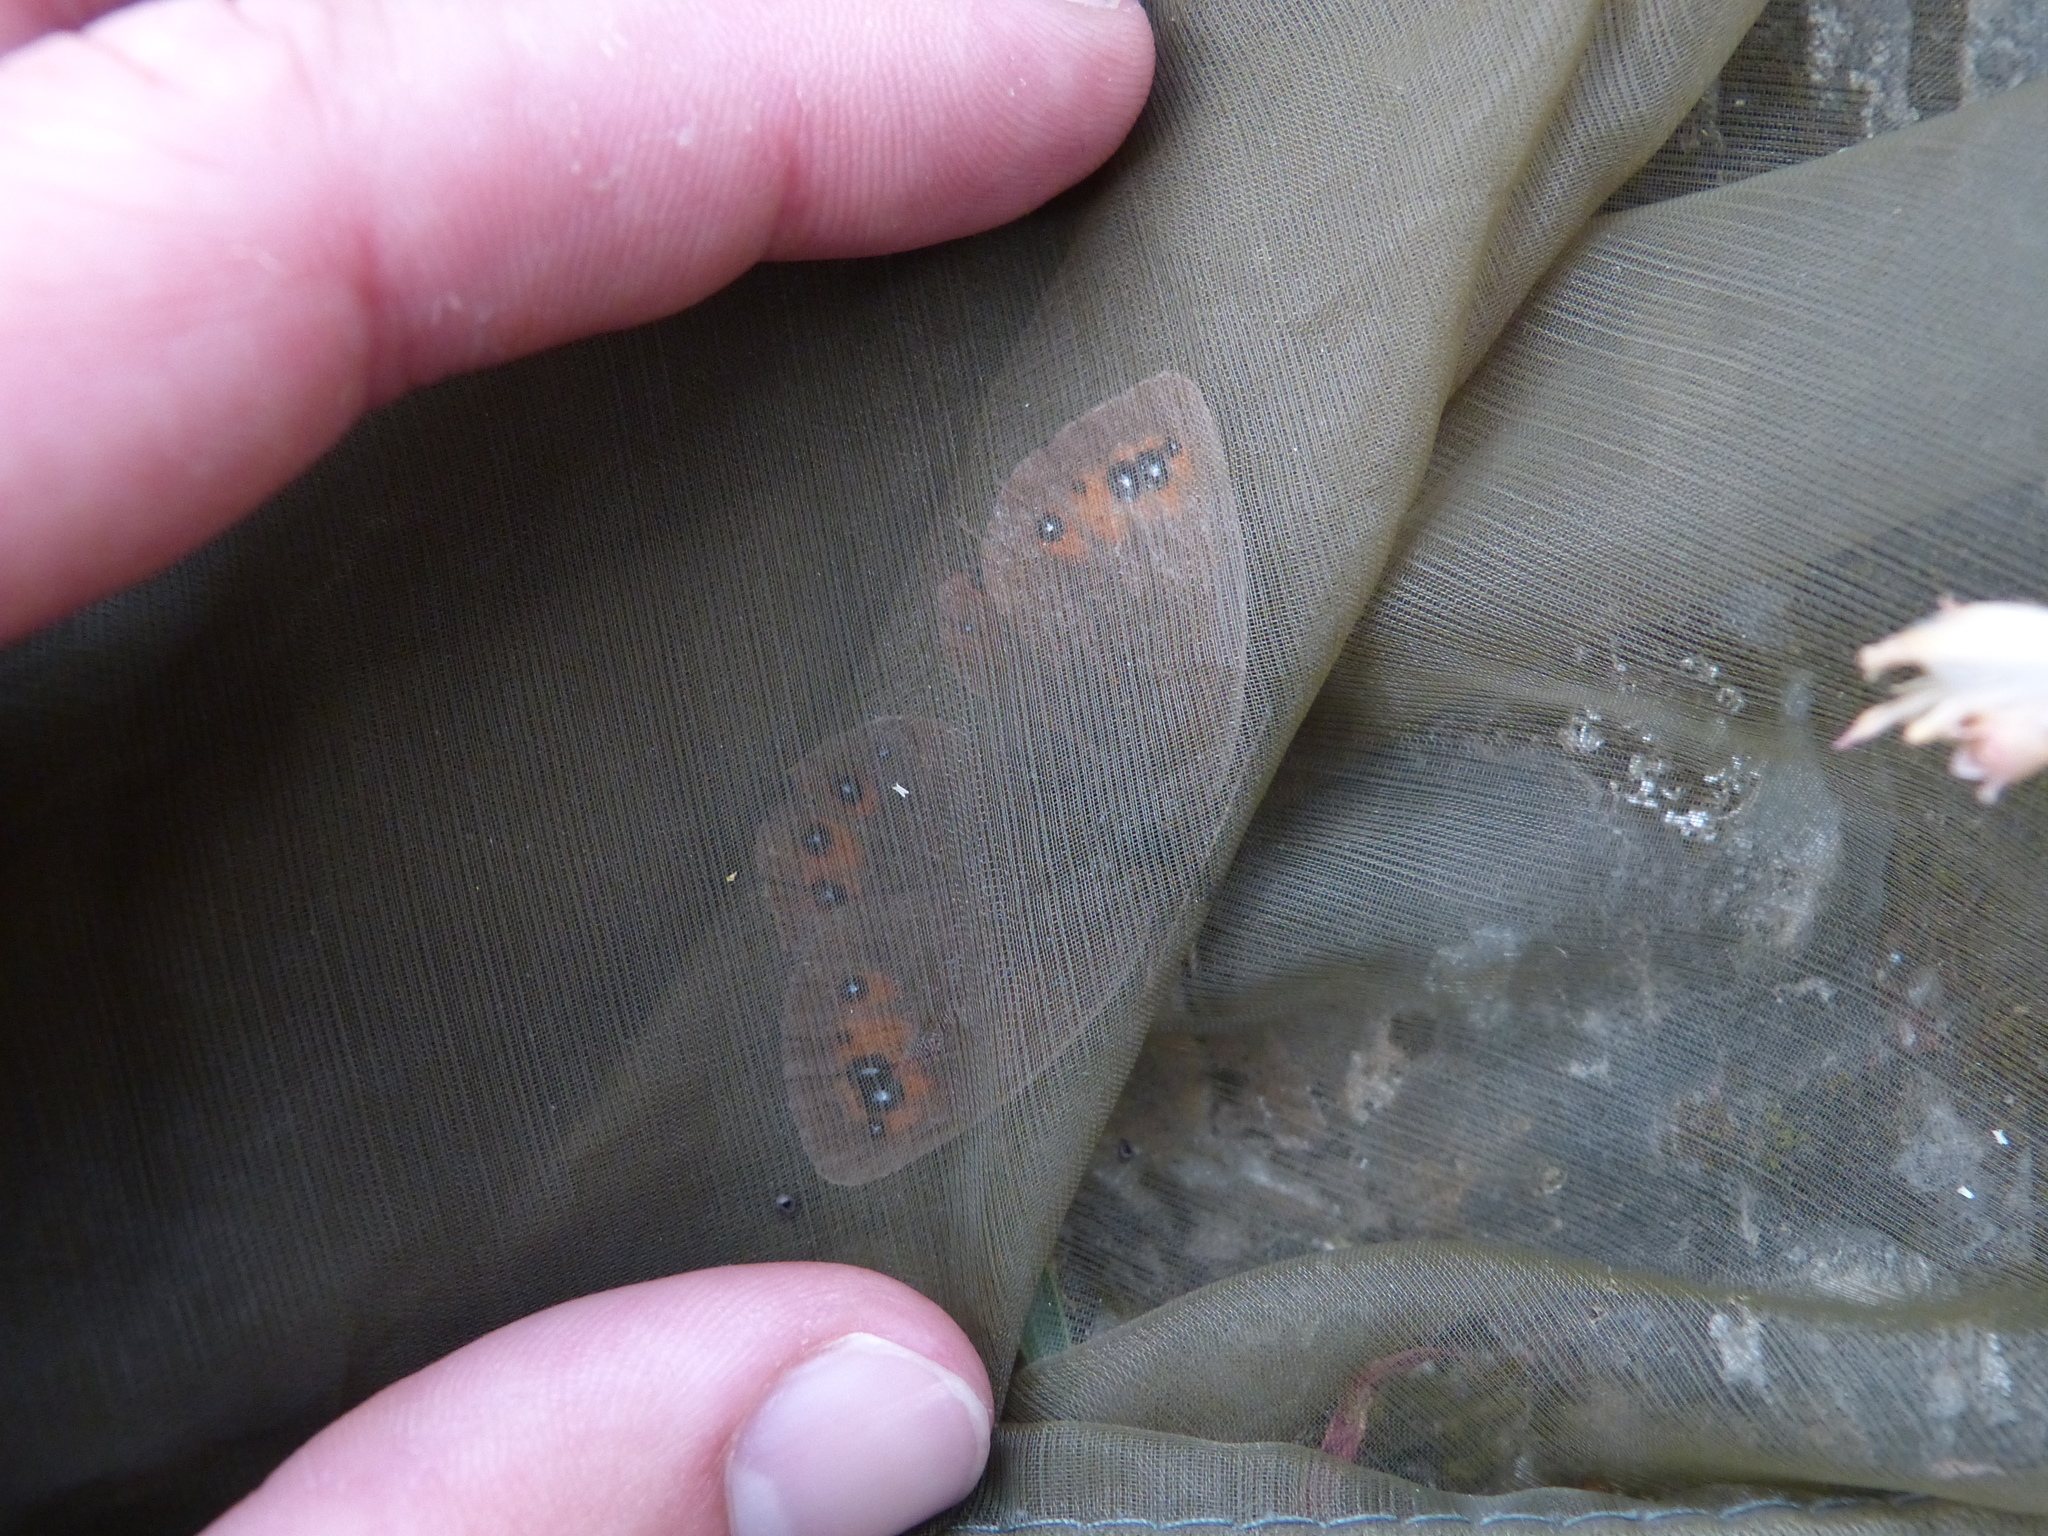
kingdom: Animalia
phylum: Arthropoda
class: Insecta
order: Lepidoptera
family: Nymphalidae
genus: Erebia
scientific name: Erebia meolans
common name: Piedmont ringlet
